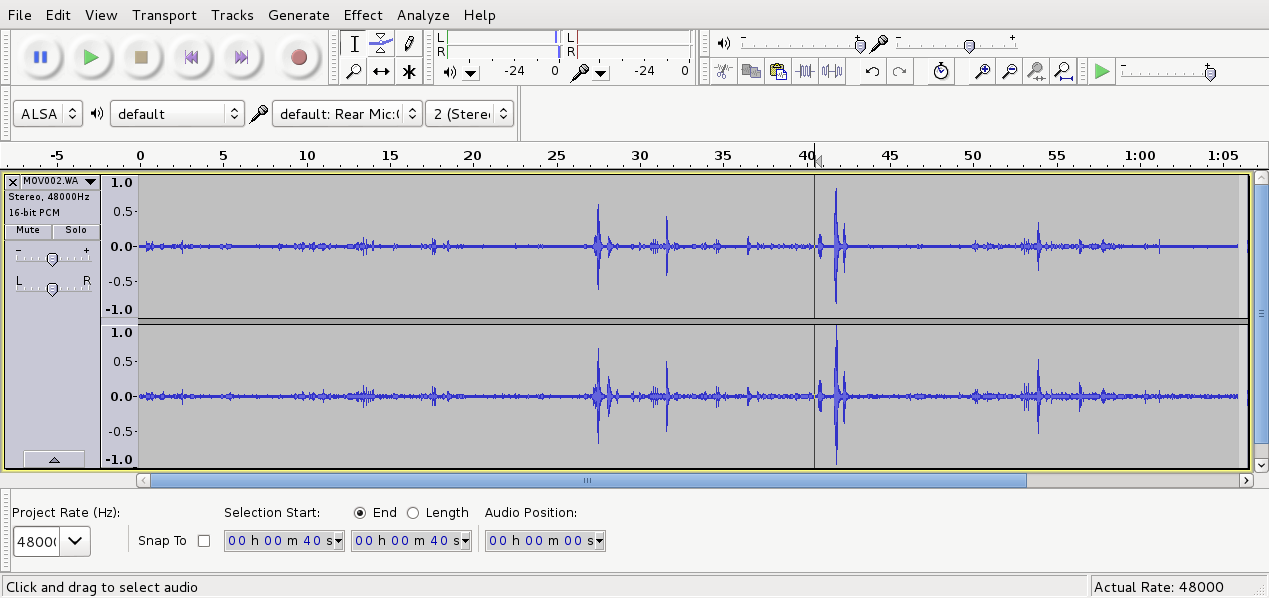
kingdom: Animalia
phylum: Chordata
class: Aves
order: Passeriformes
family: Meliphagidae
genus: Prosthemadera
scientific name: Prosthemadera novaeseelandiae
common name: Tui
